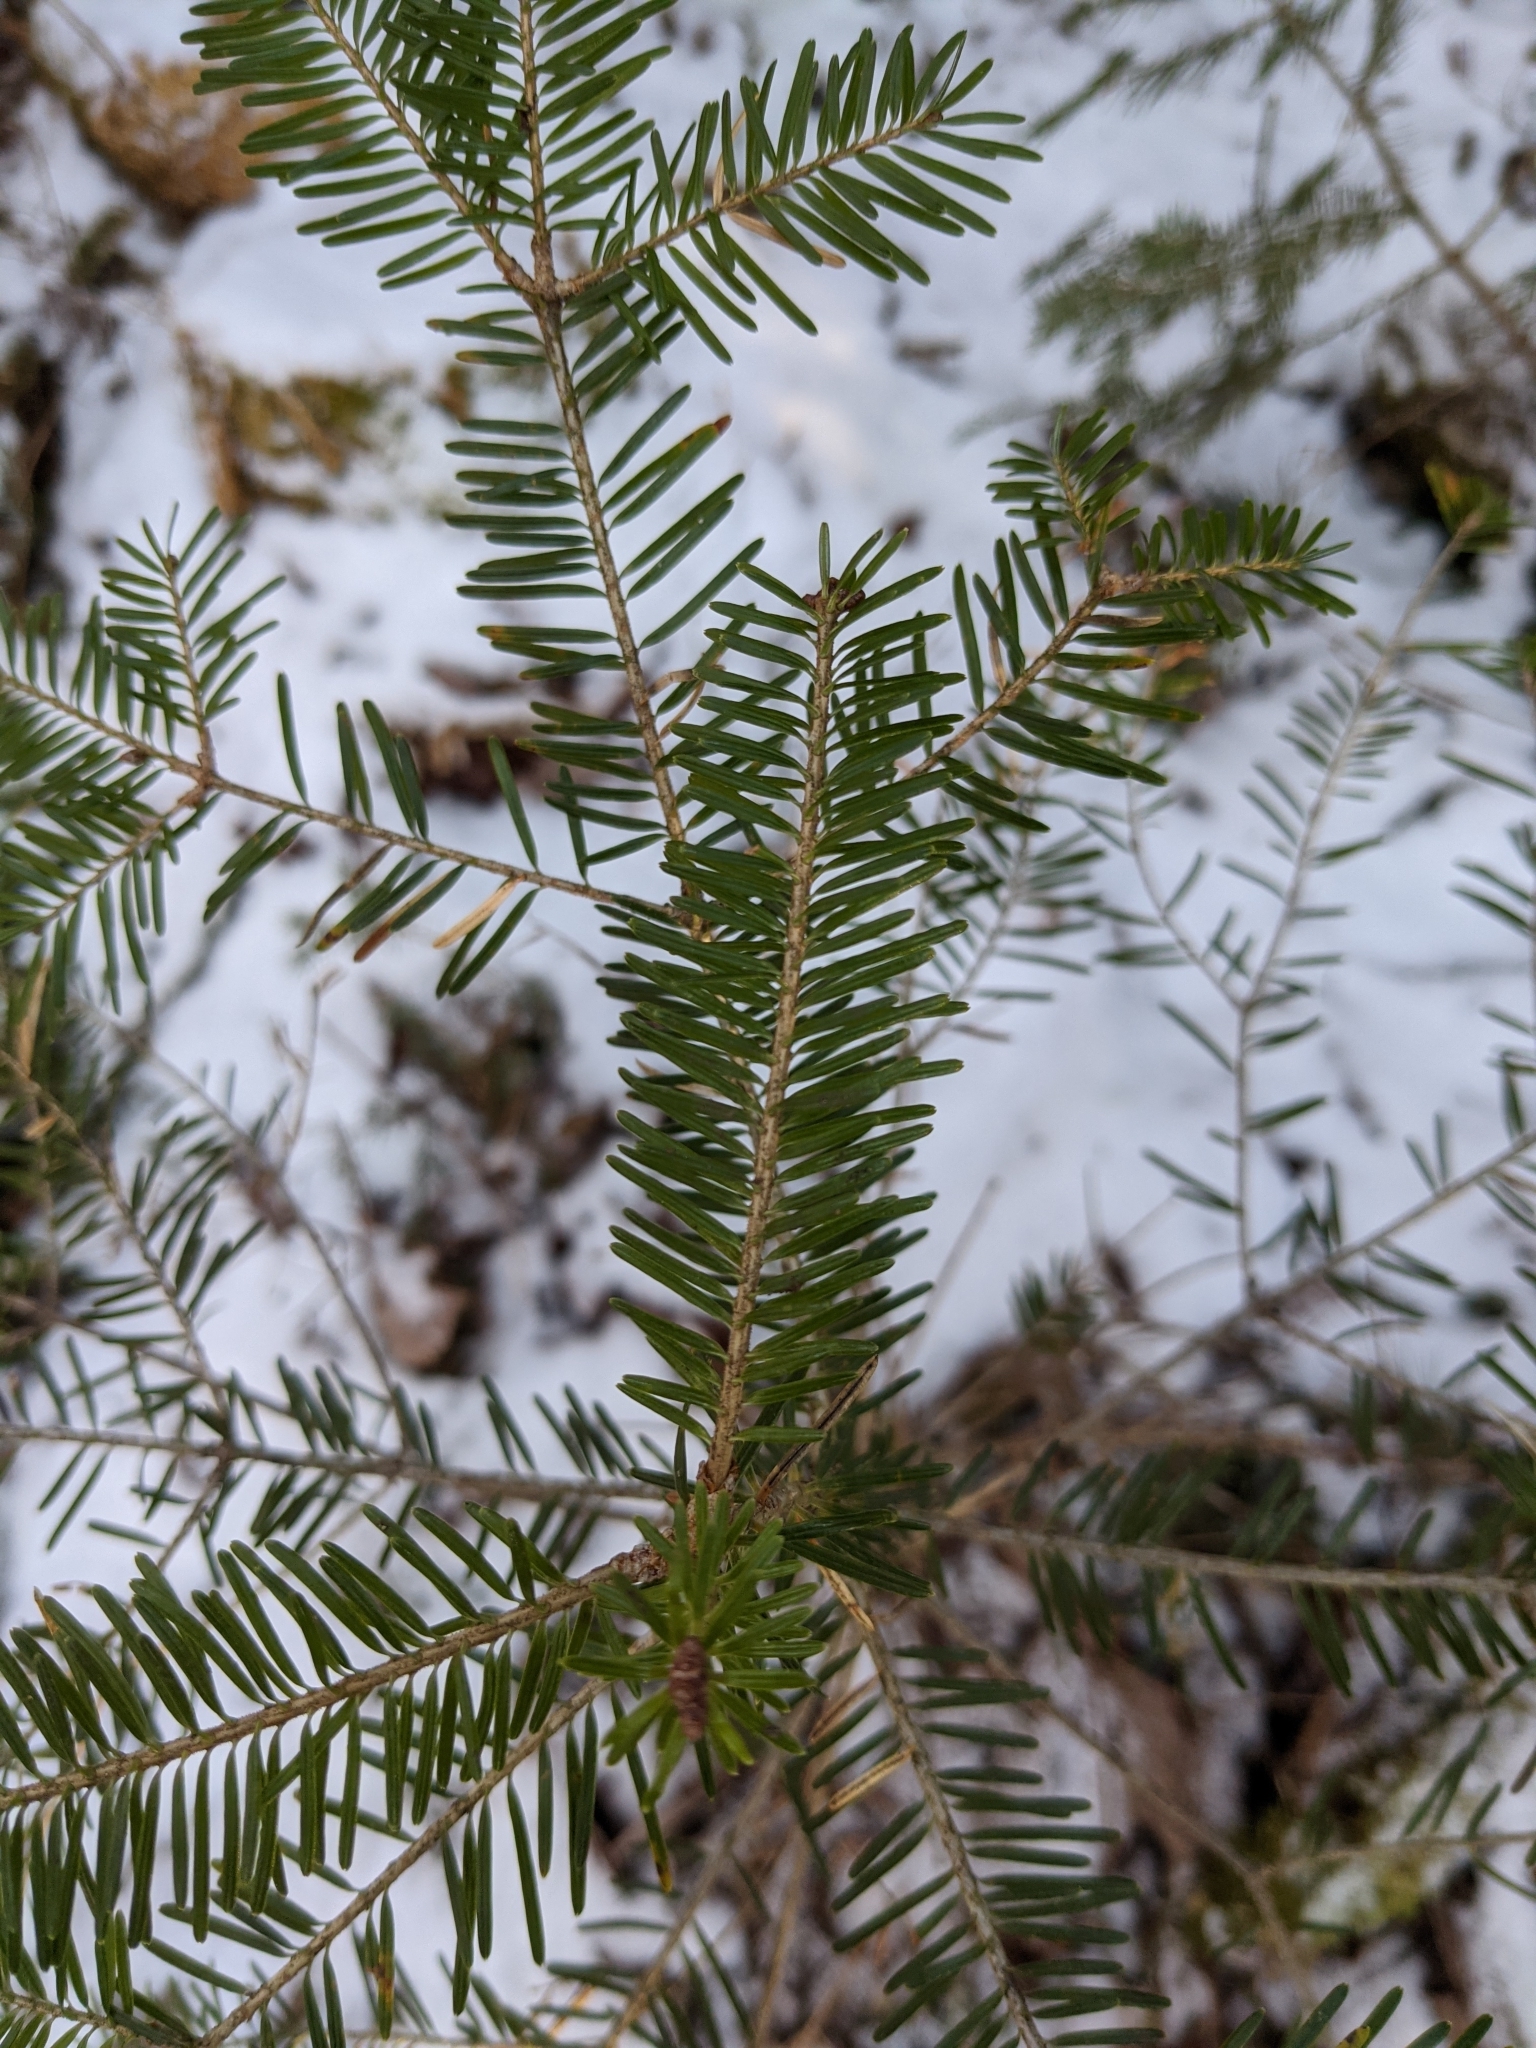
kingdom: Plantae
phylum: Tracheophyta
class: Pinopsida
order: Pinales
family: Pinaceae
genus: Abies
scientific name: Abies balsamea
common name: Balsam fir
